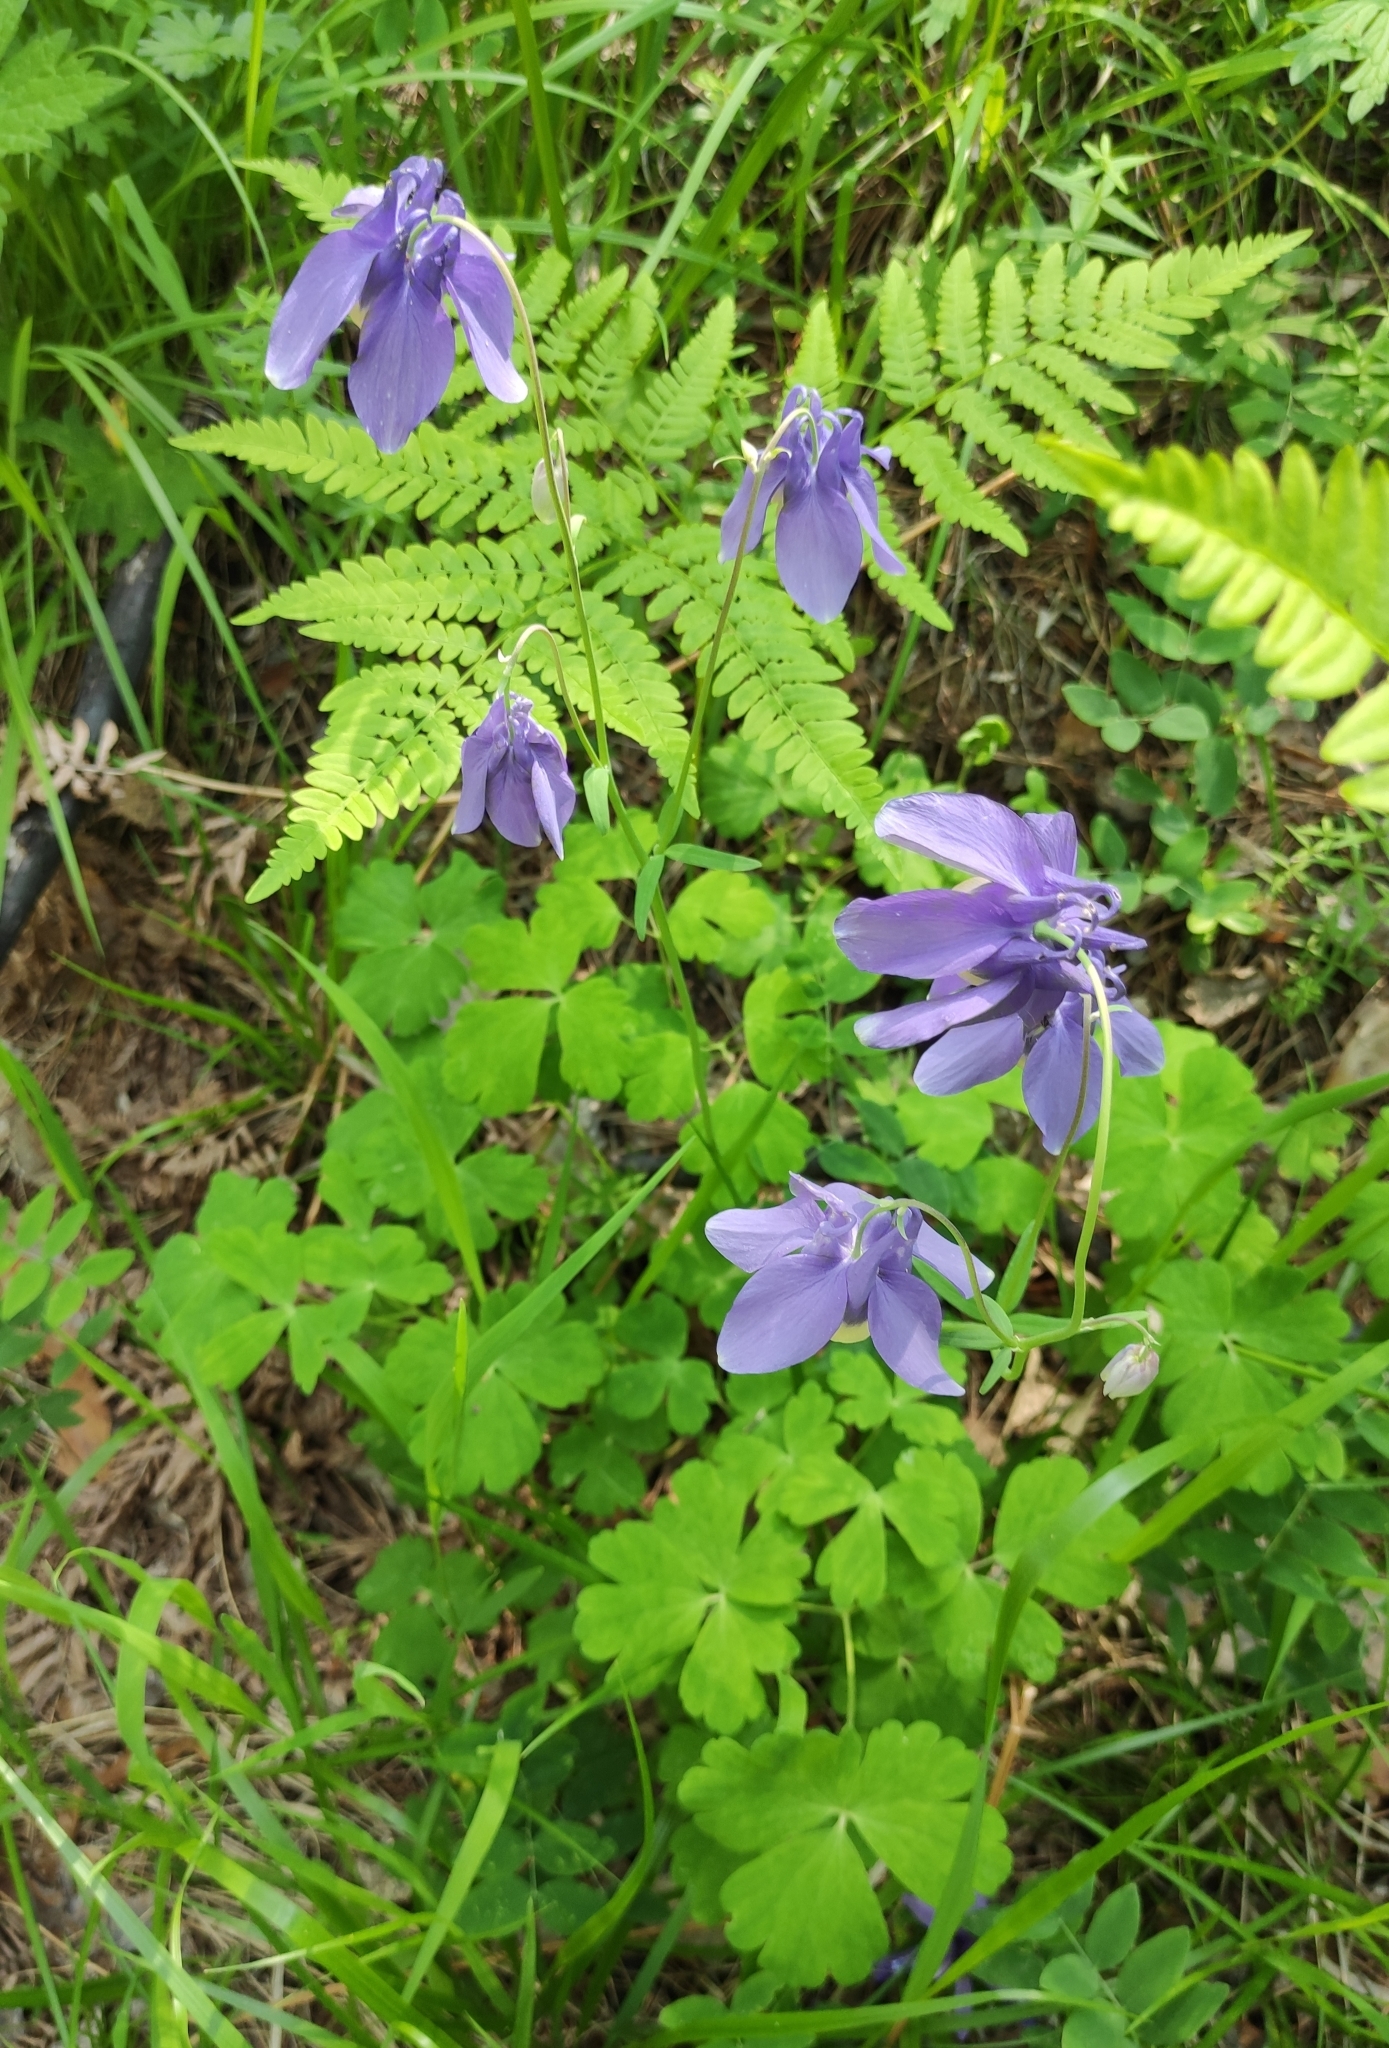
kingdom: Plantae
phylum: Tracheophyta
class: Magnoliopsida
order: Ranunculales
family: Ranunculaceae
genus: Aquilegia
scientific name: Aquilegia sibirica
